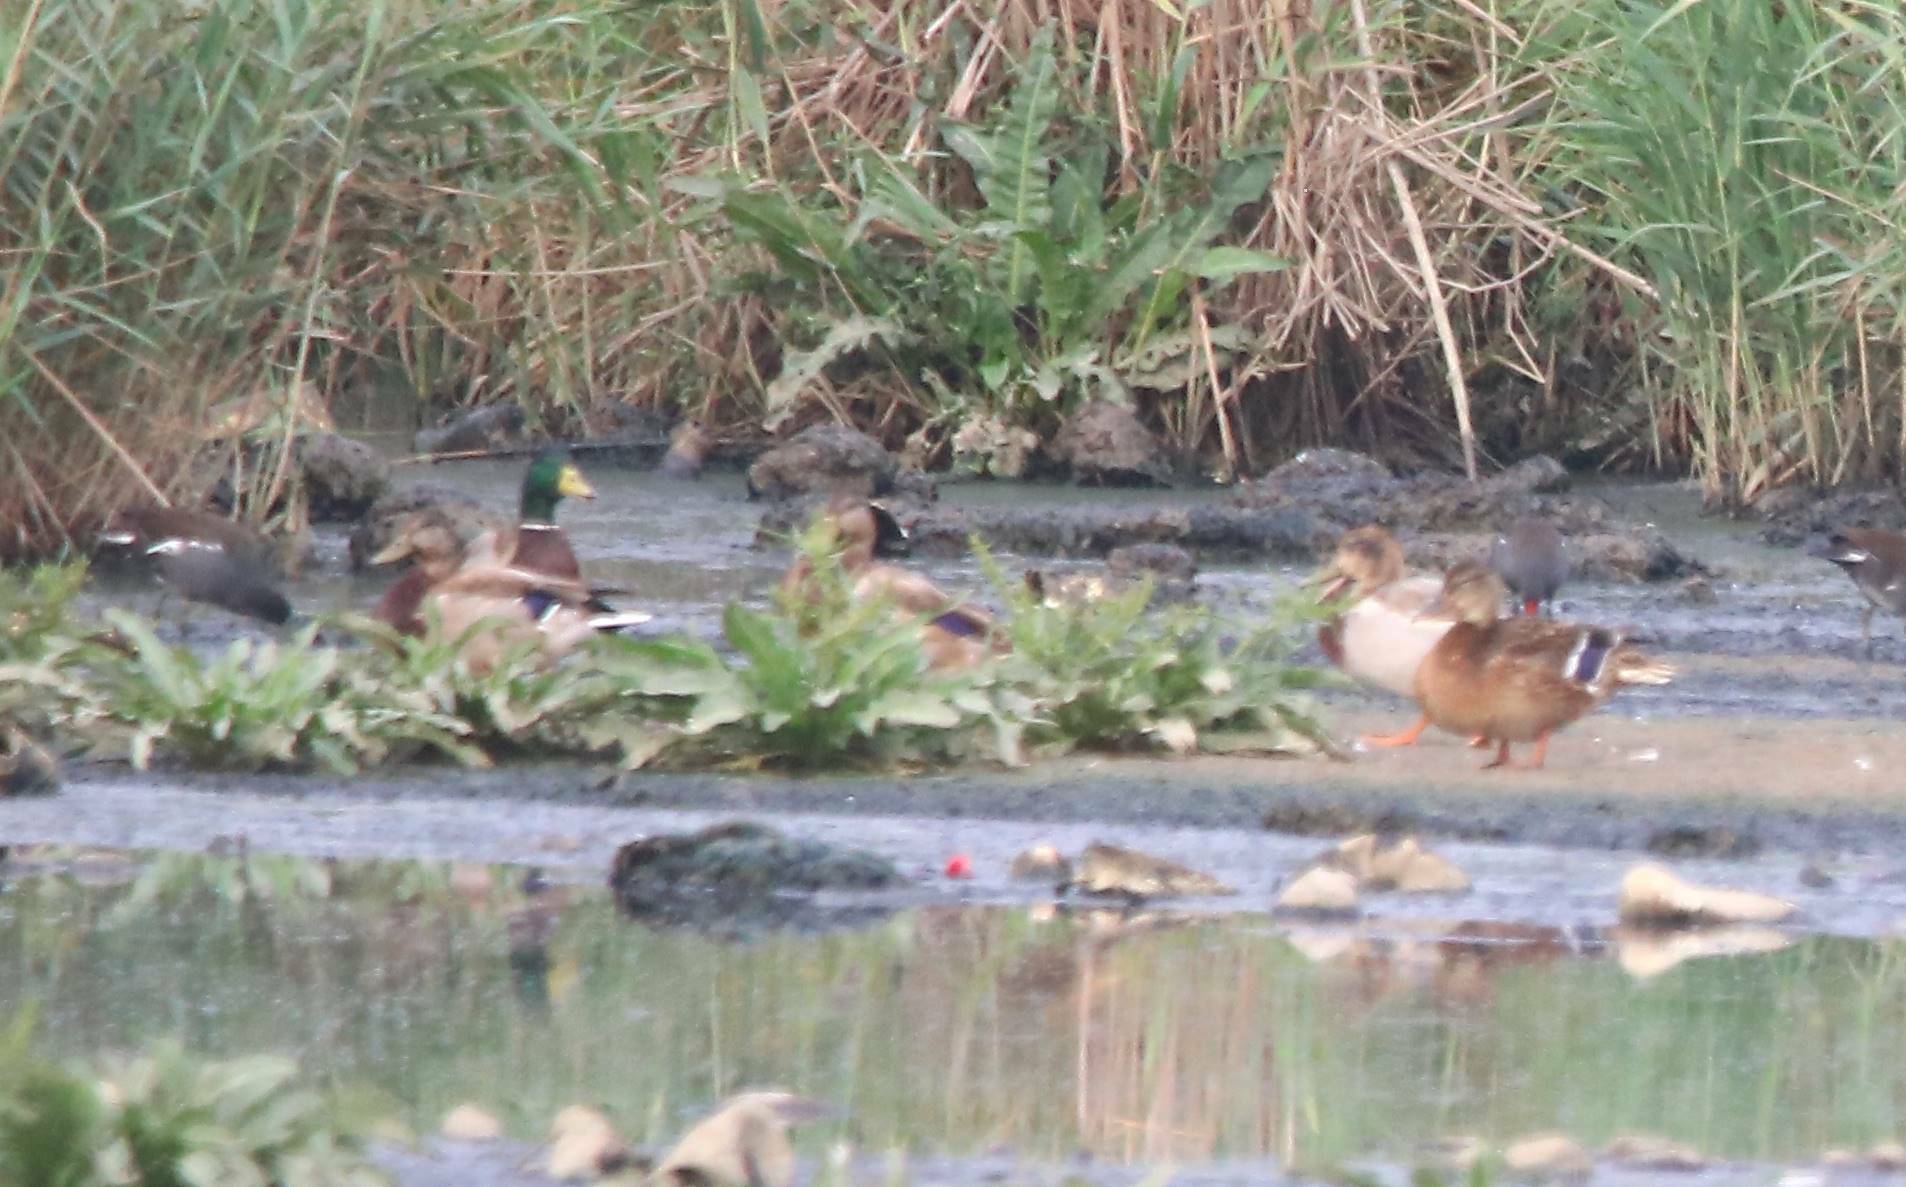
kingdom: Animalia
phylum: Chordata
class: Aves
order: Anseriformes
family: Anatidae
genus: Anas
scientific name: Anas platyrhynchos
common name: Mallard
